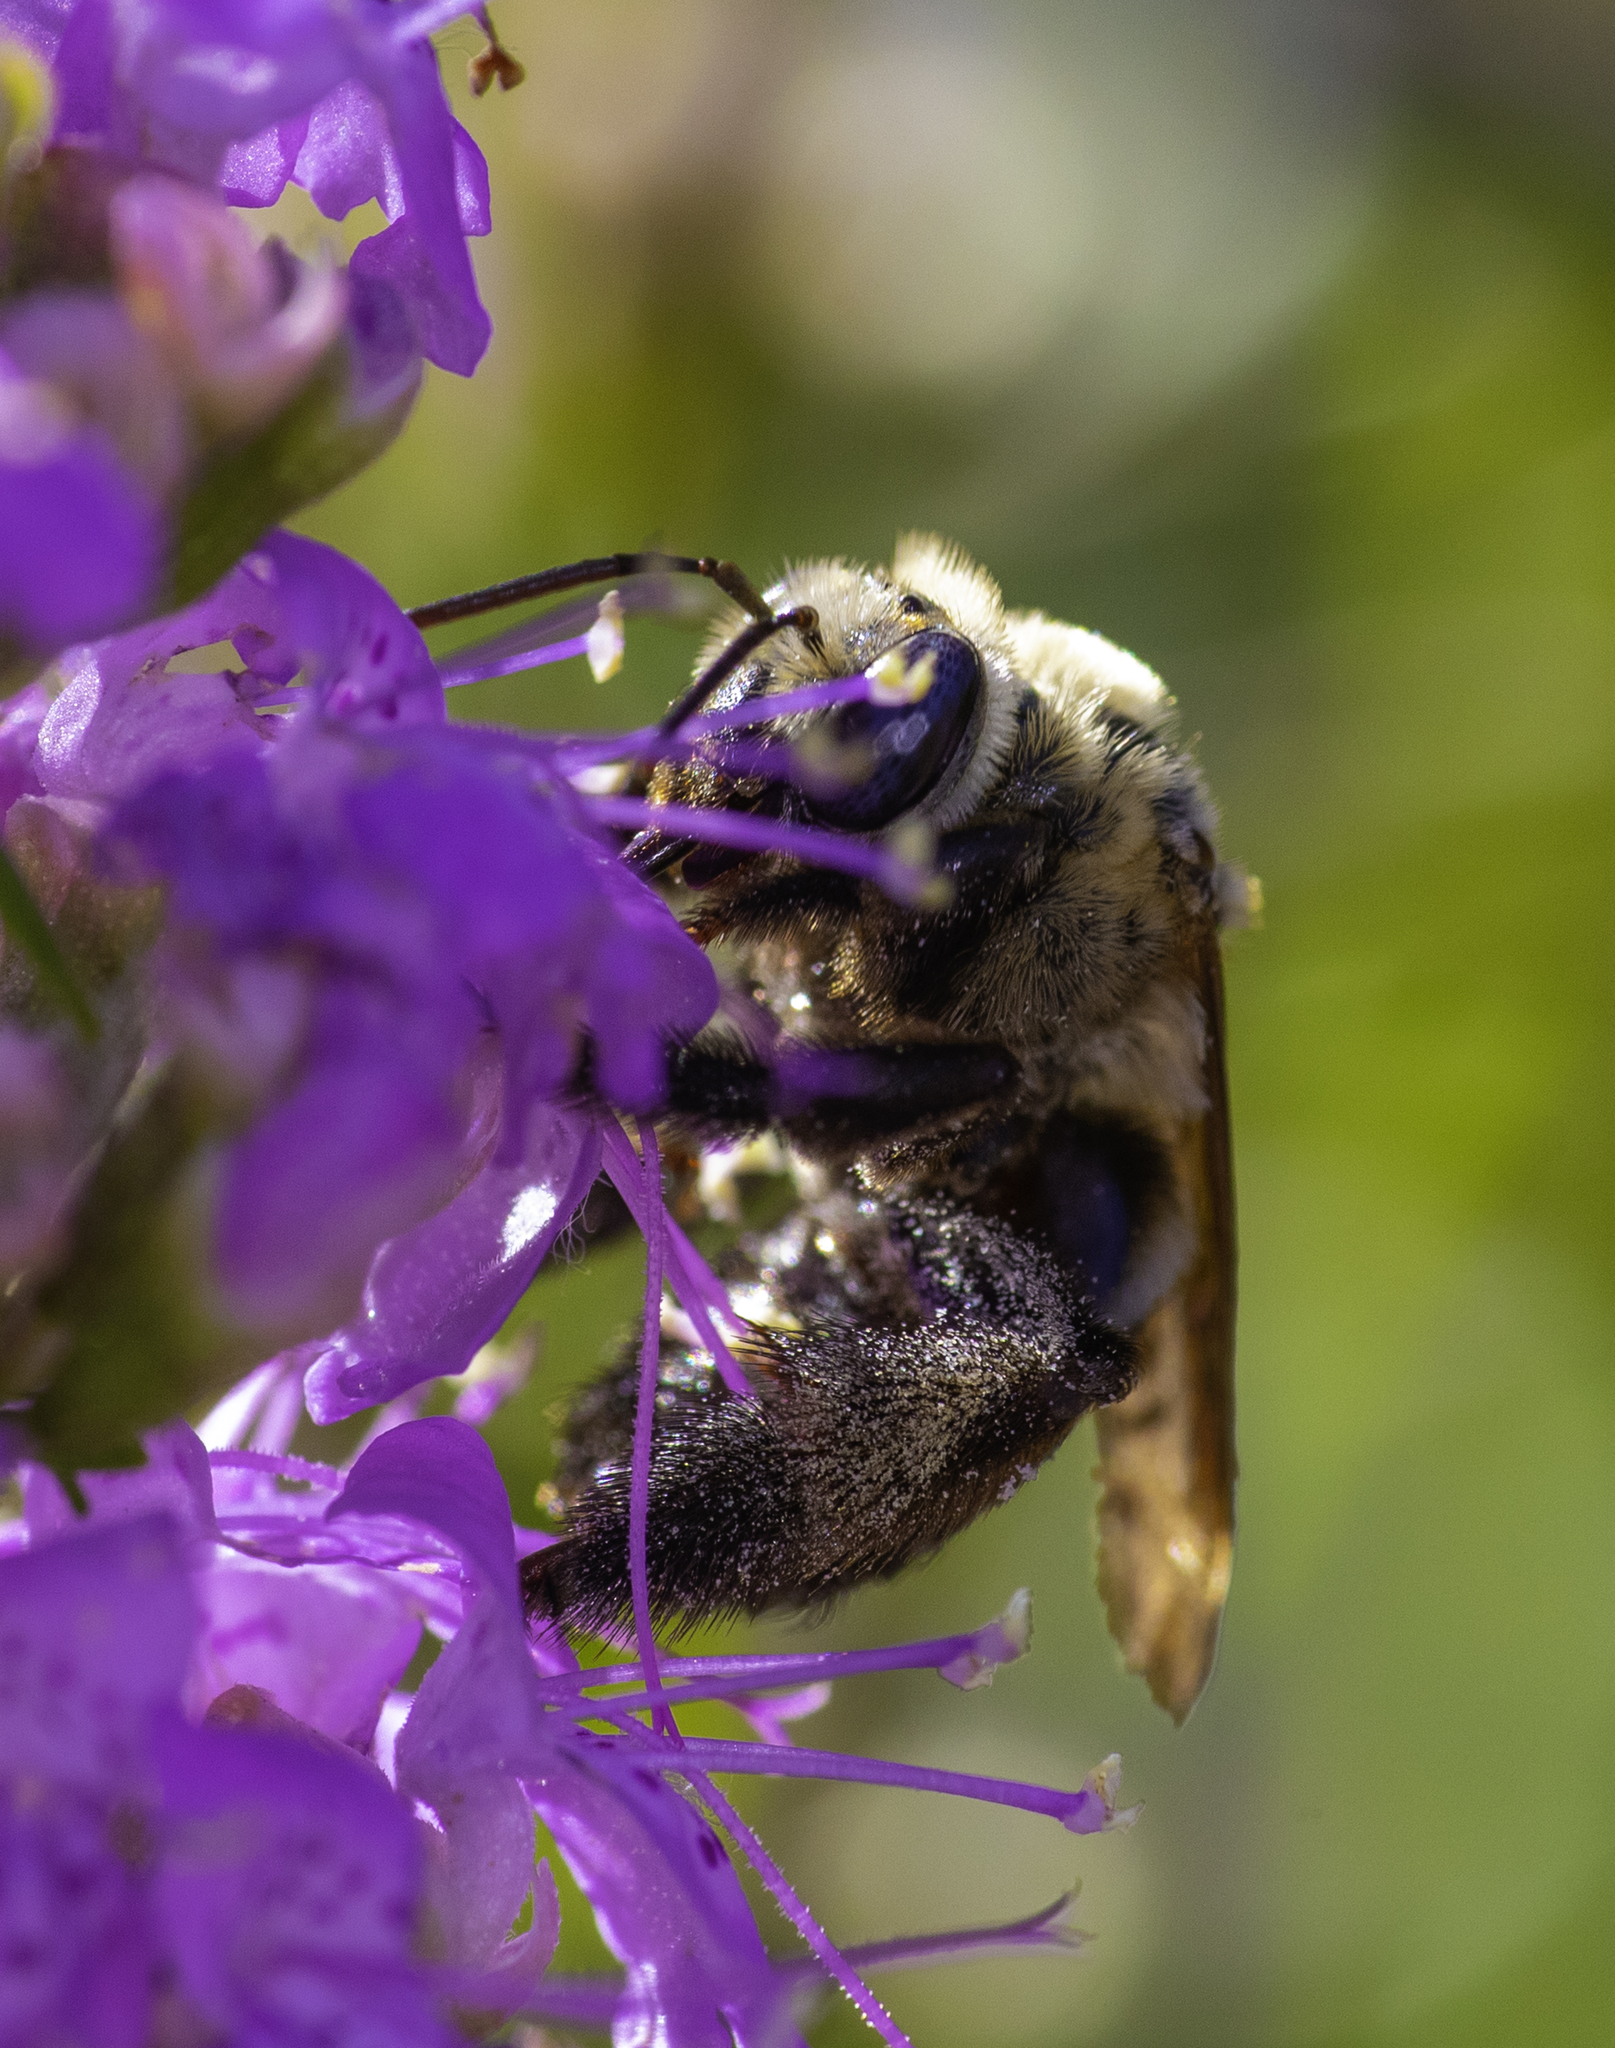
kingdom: Animalia
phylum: Arthropoda
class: Insecta
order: Hymenoptera
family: Apidae
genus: Svastra
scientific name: Svastra atripes
